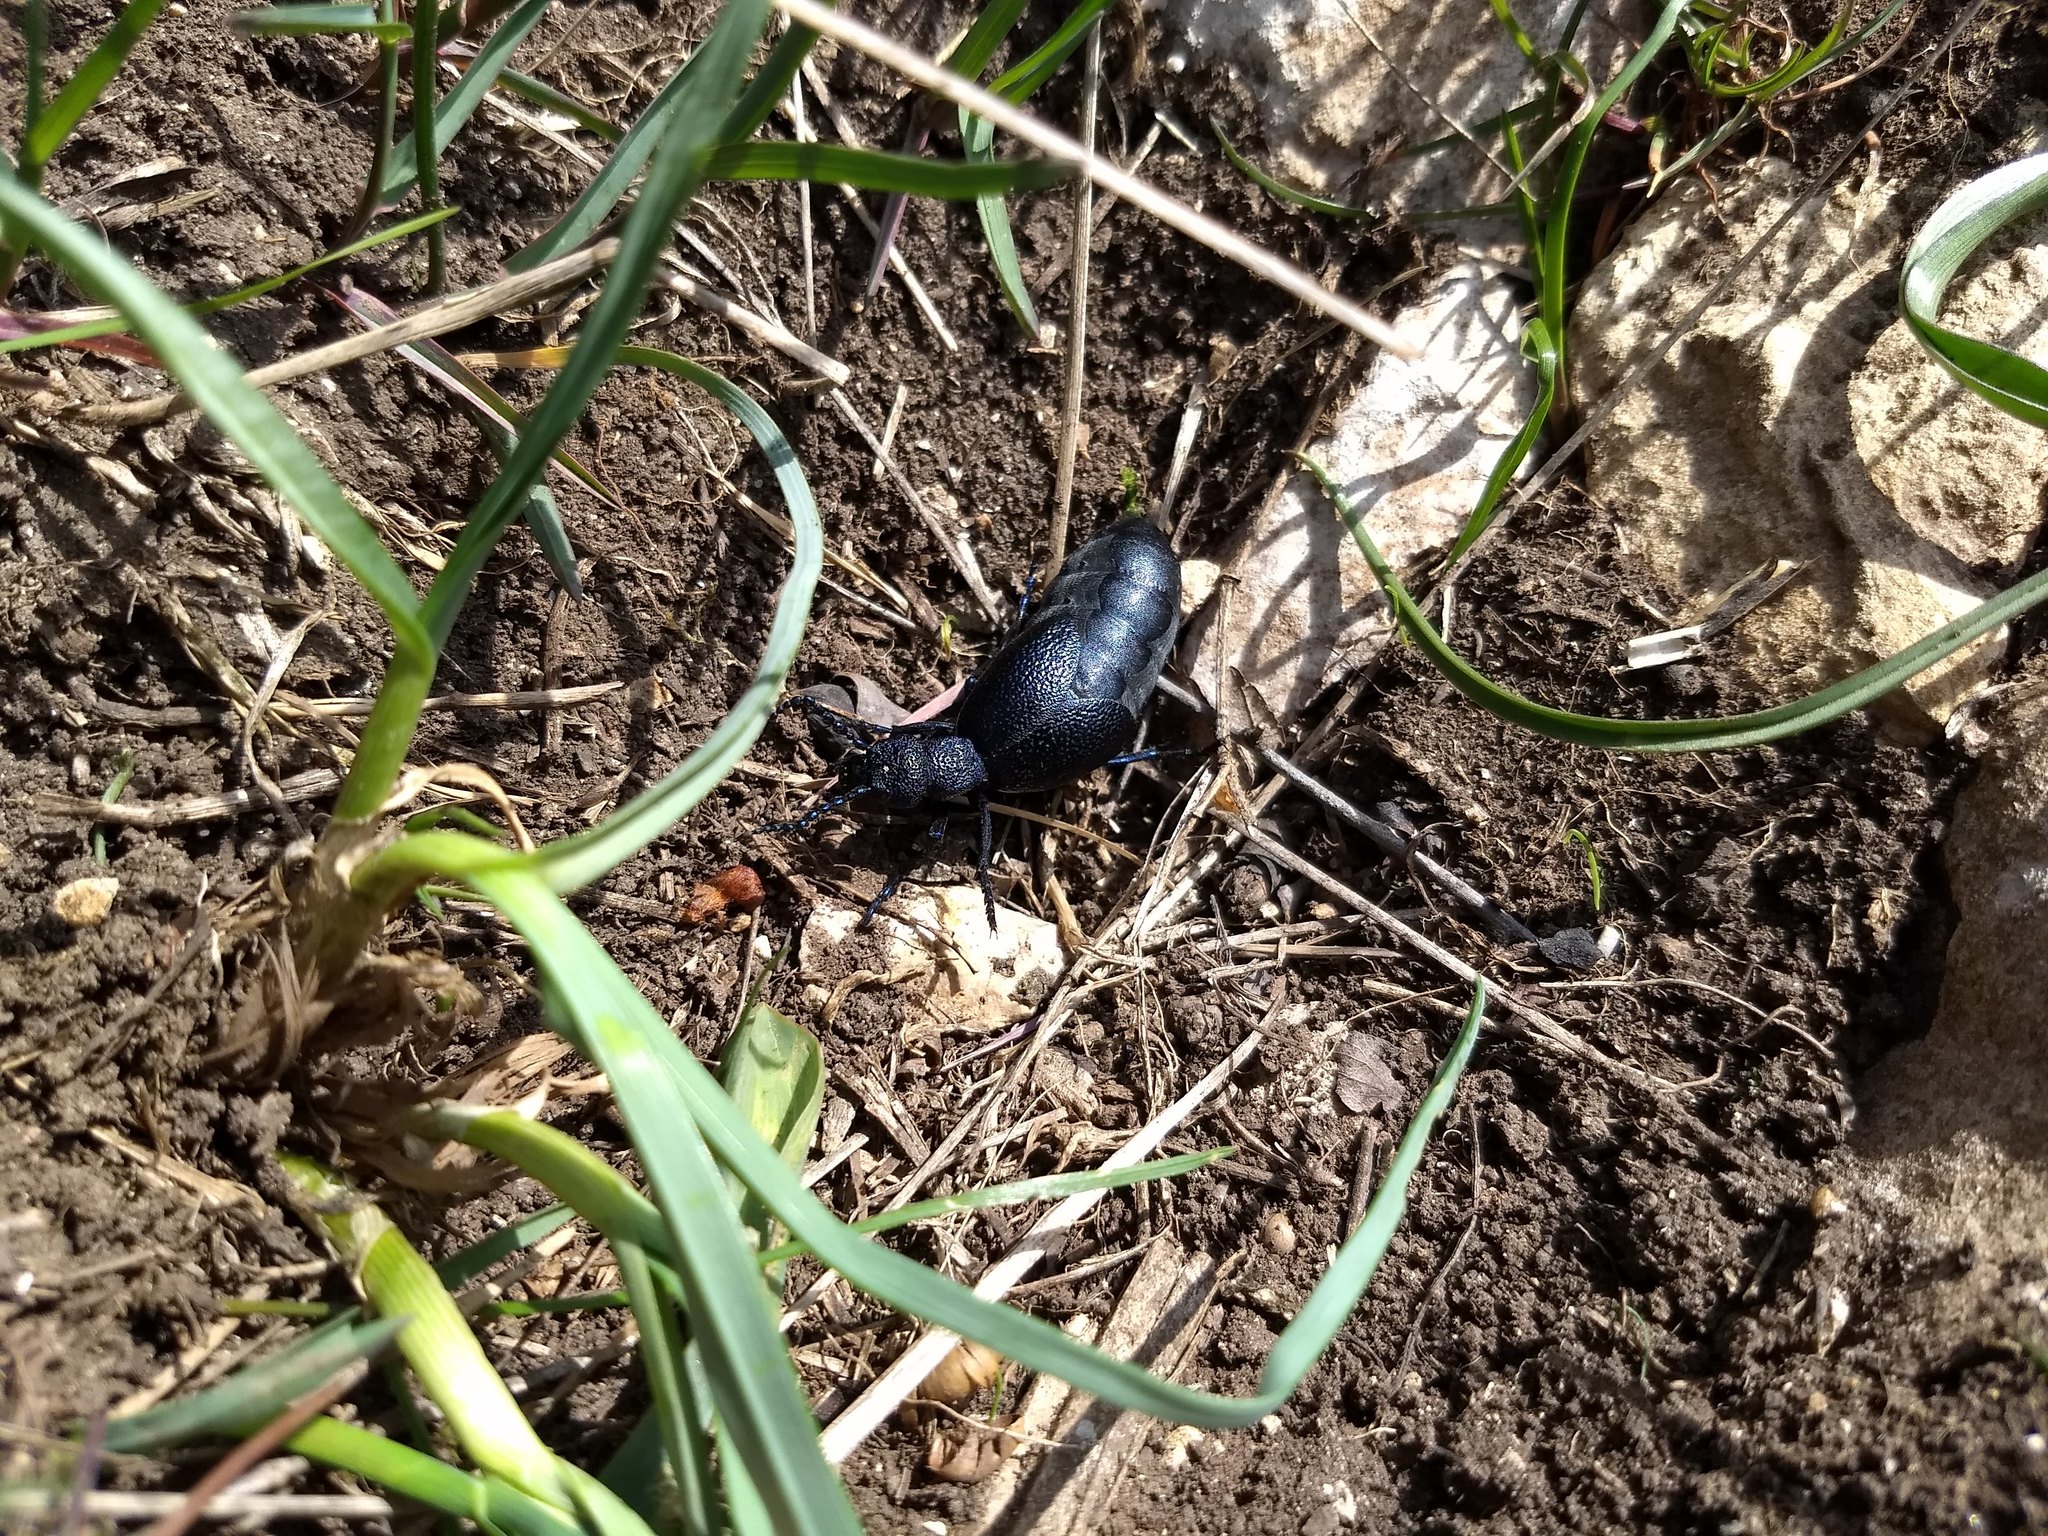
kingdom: Animalia
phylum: Arthropoda
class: Insecta
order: Coleoptera
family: Meloidae
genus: Meloe
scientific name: Meloe proscarabaeus
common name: Black oil-beetle
